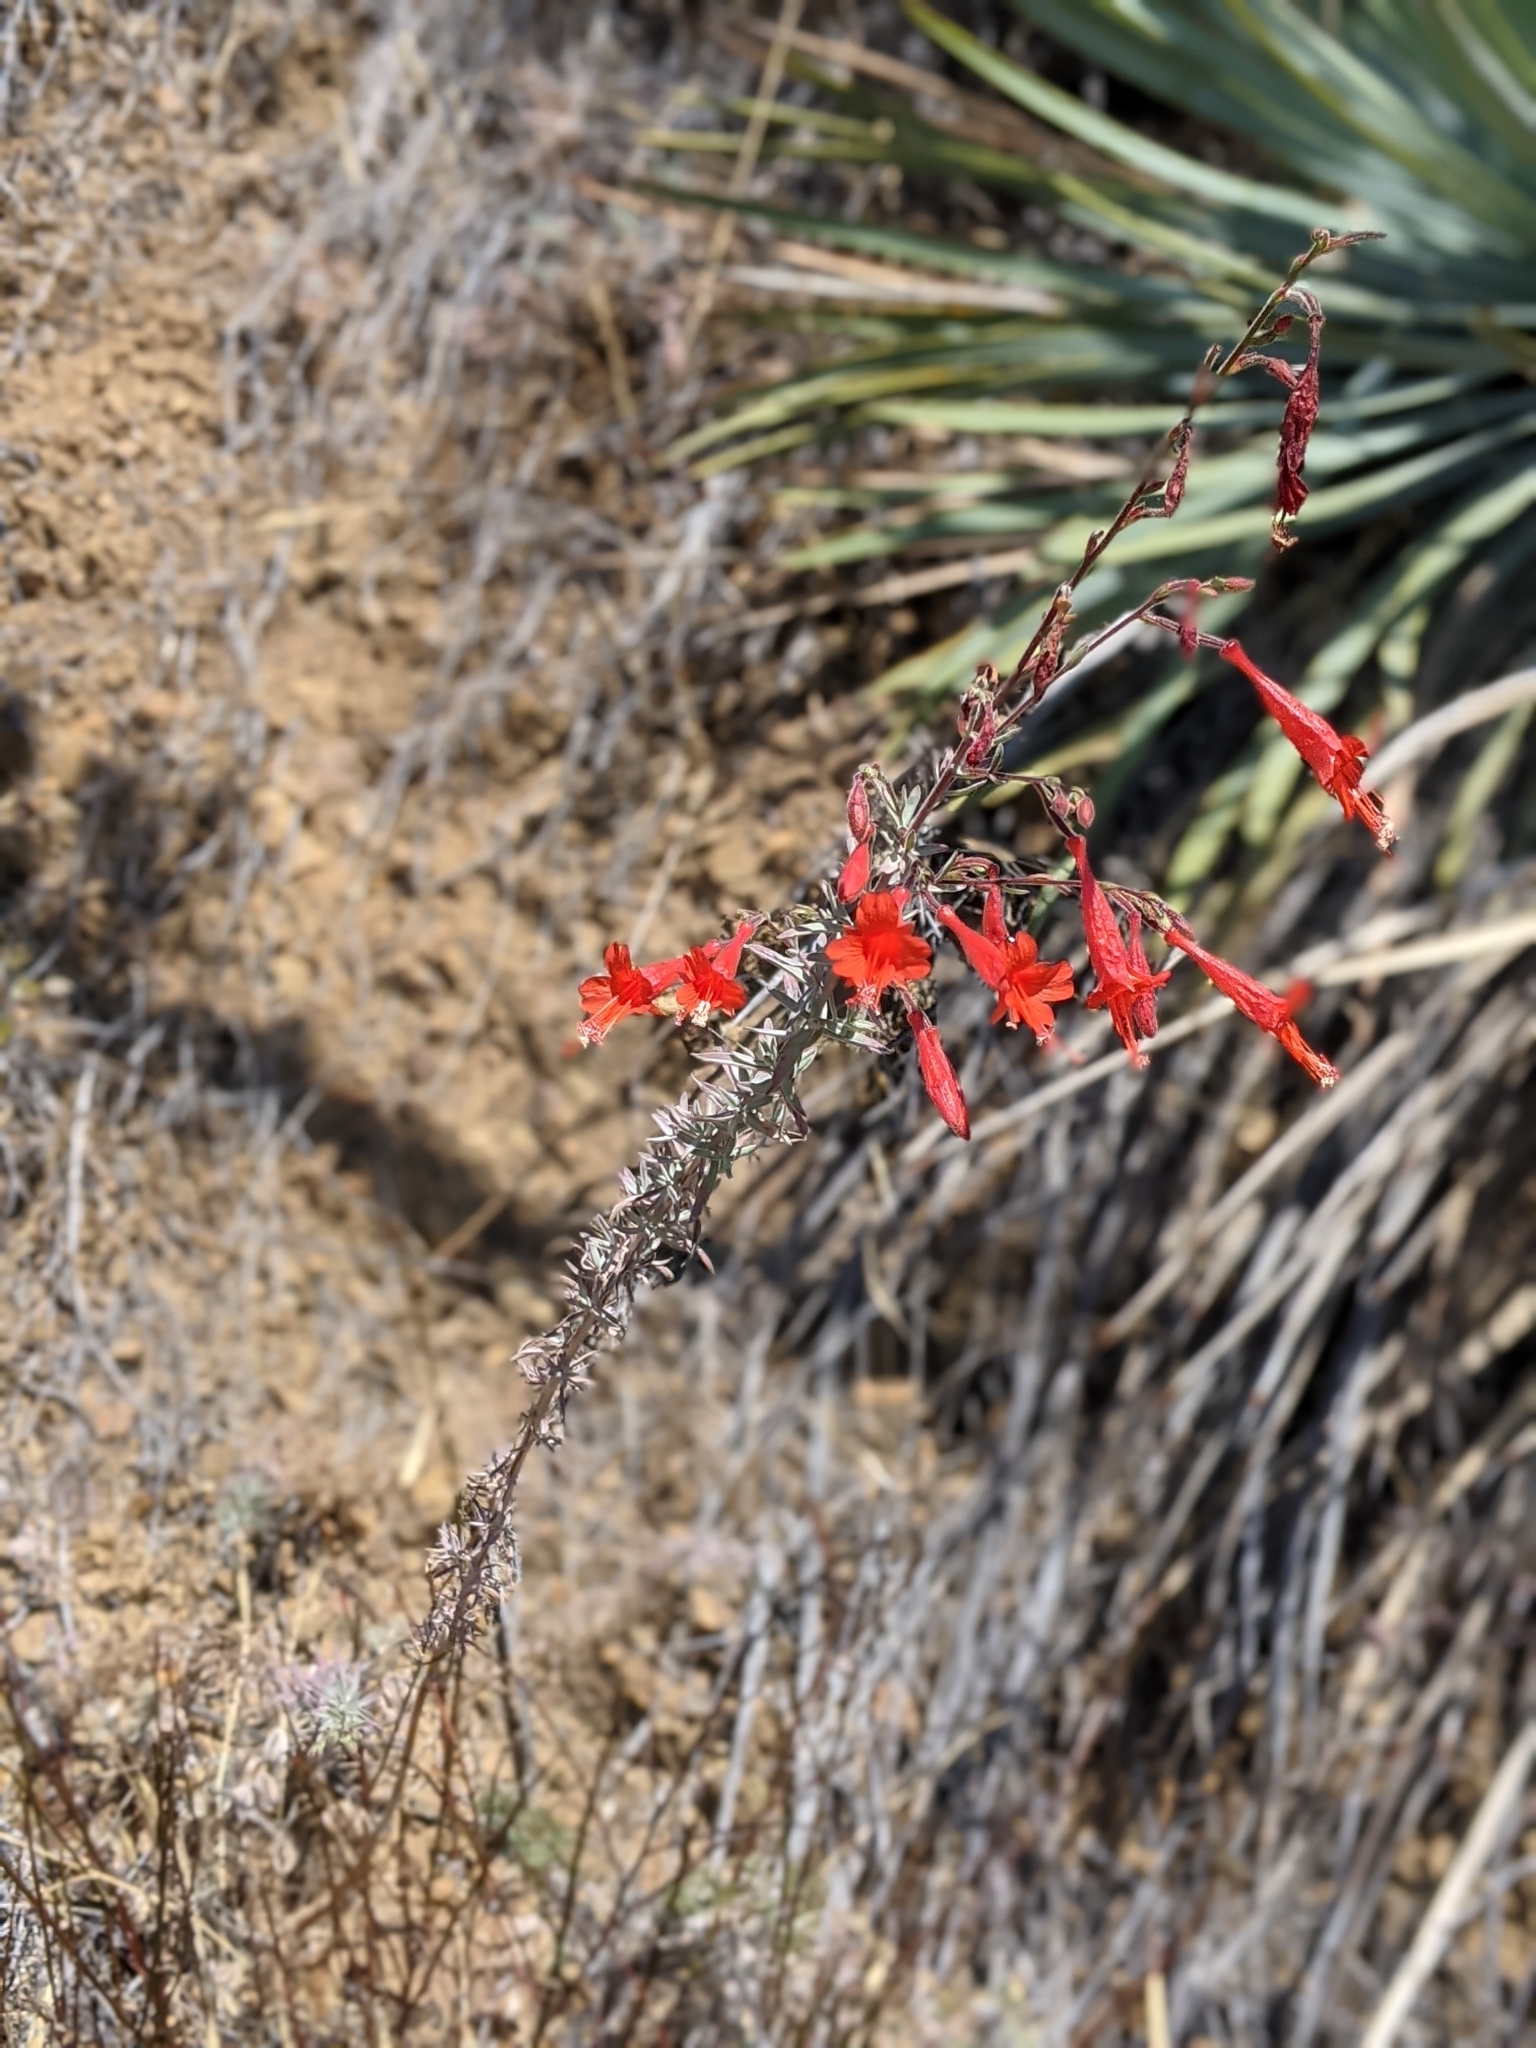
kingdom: Plantae
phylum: Tracheophyta
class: Magnoliopsida
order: Myrtales
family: Onagraceae
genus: Epilobium
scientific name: Epilobium canum
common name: California-fuchsia
